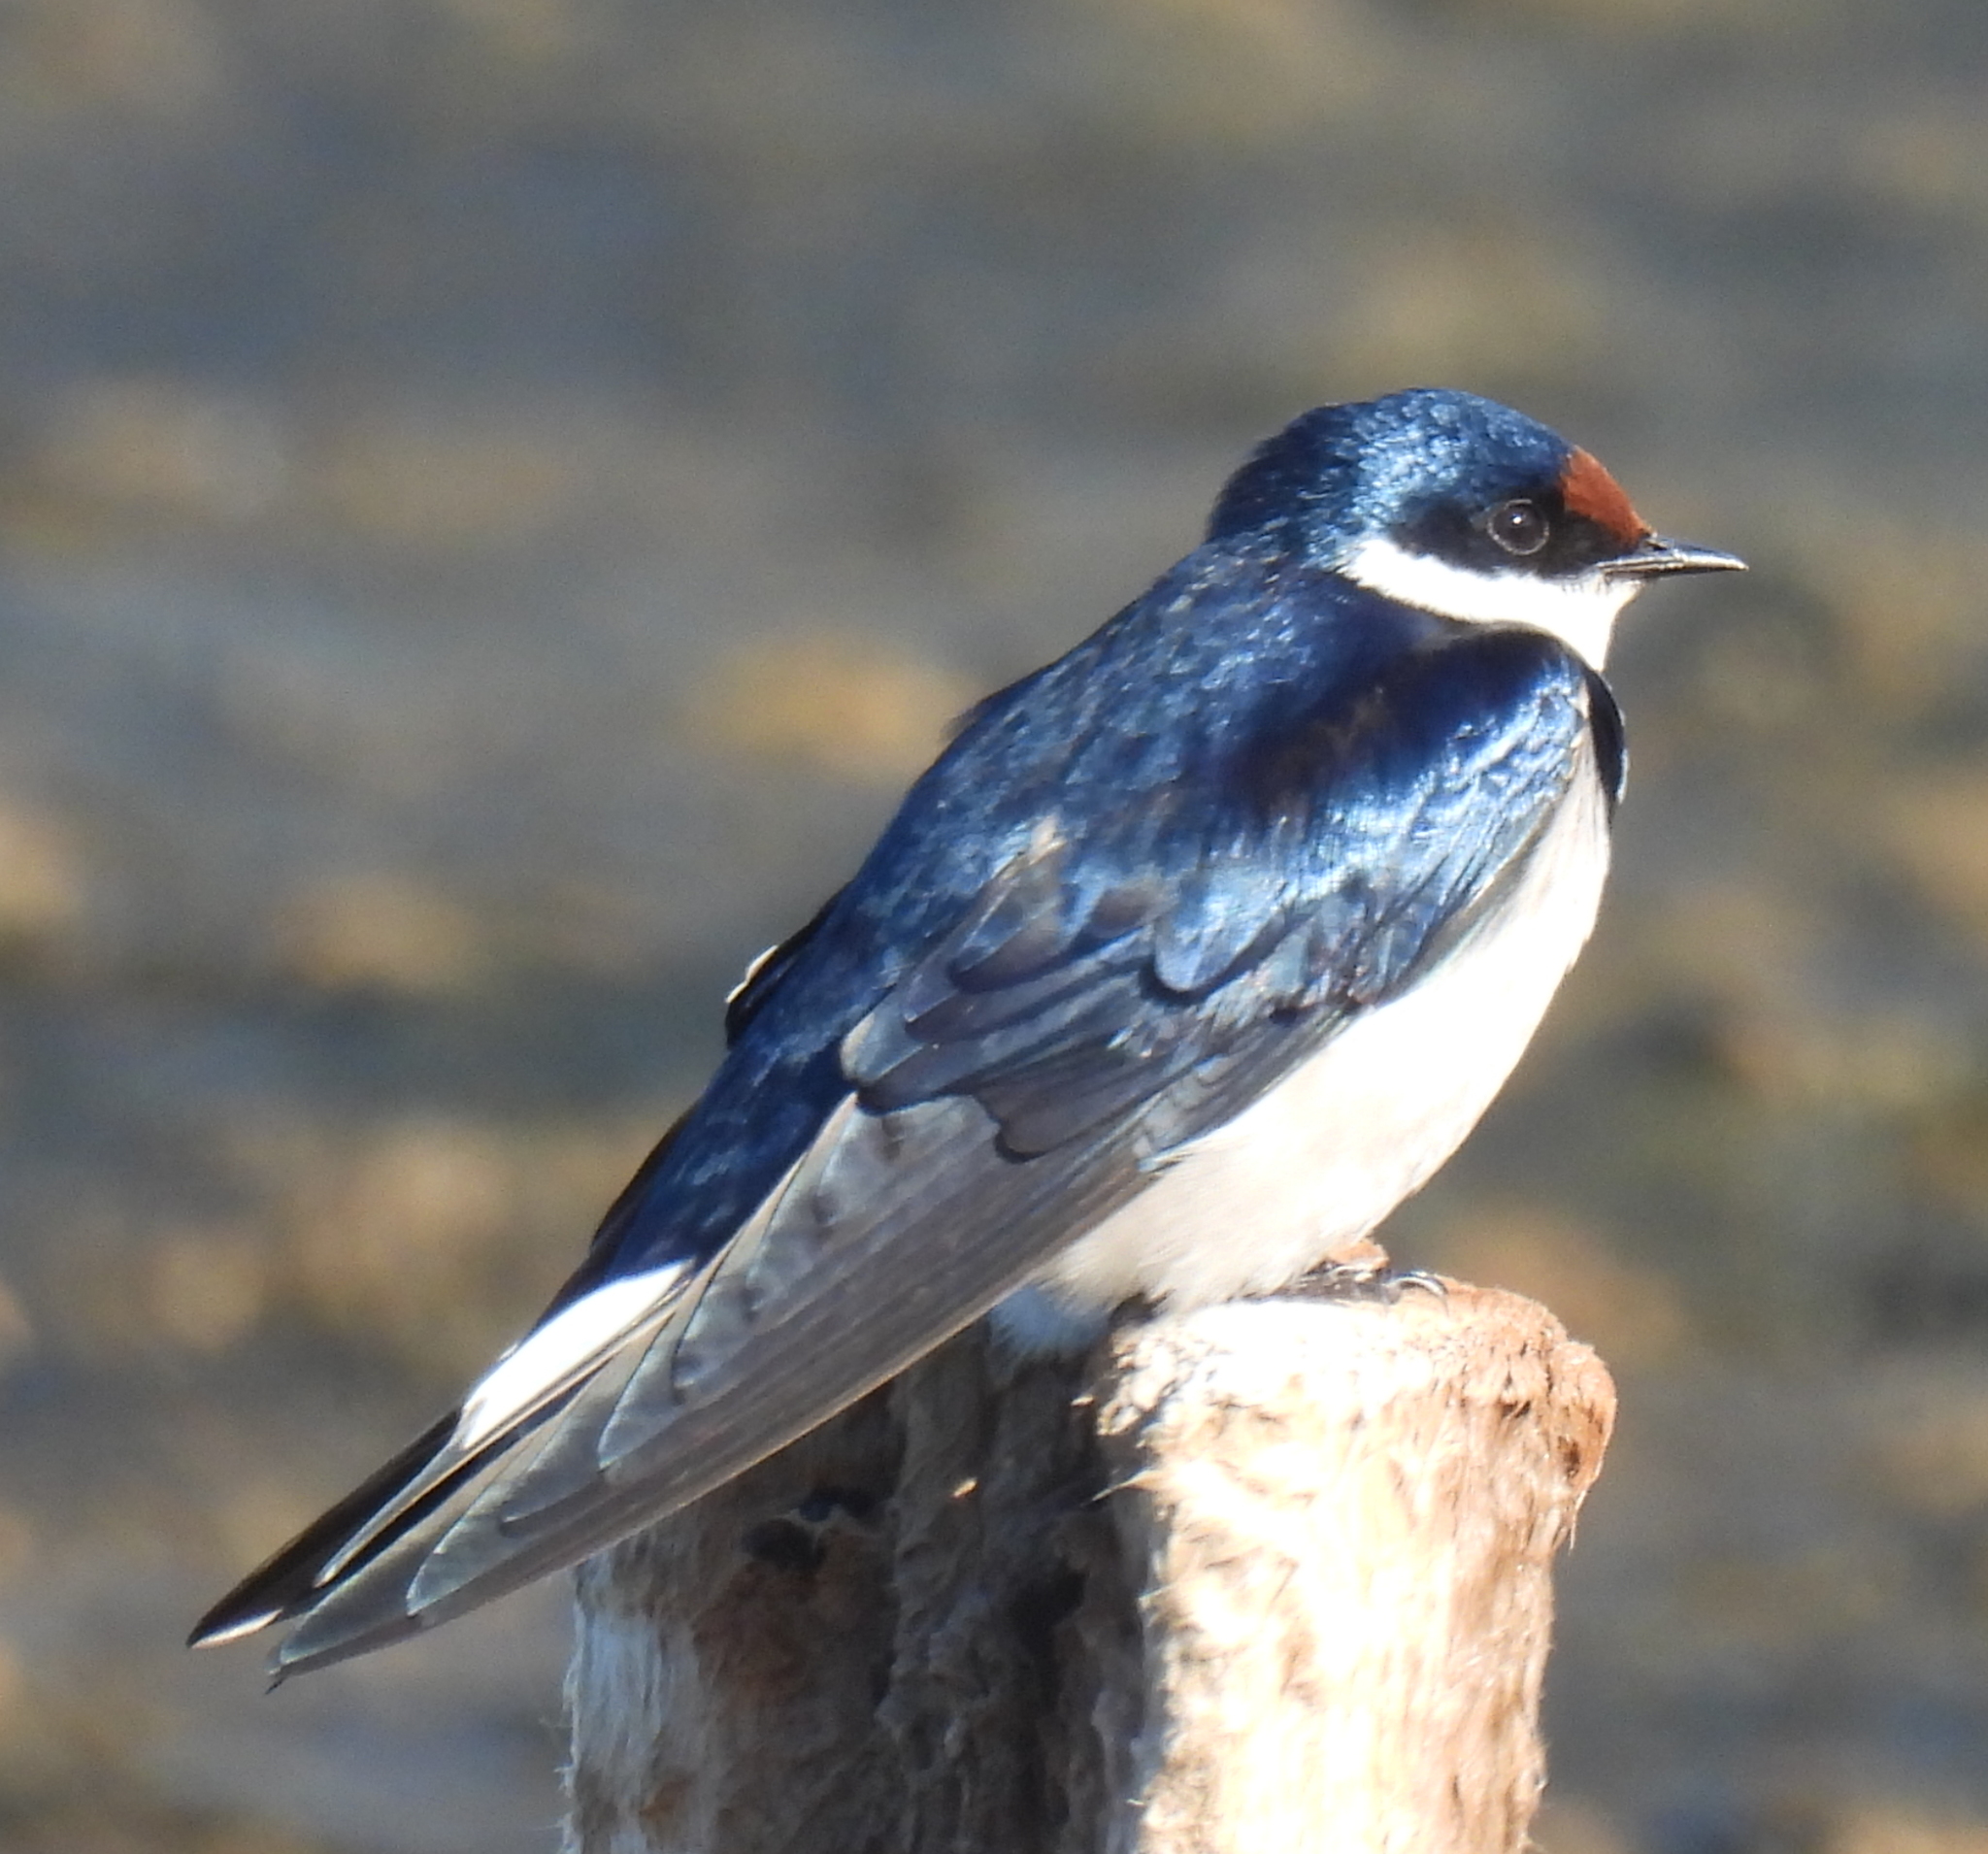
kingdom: Animalia
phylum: Chordata
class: Aves
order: Passeriformes
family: Hirundinidae
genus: Hirundo
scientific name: Hirundo albigularis
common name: White-throated swallow
